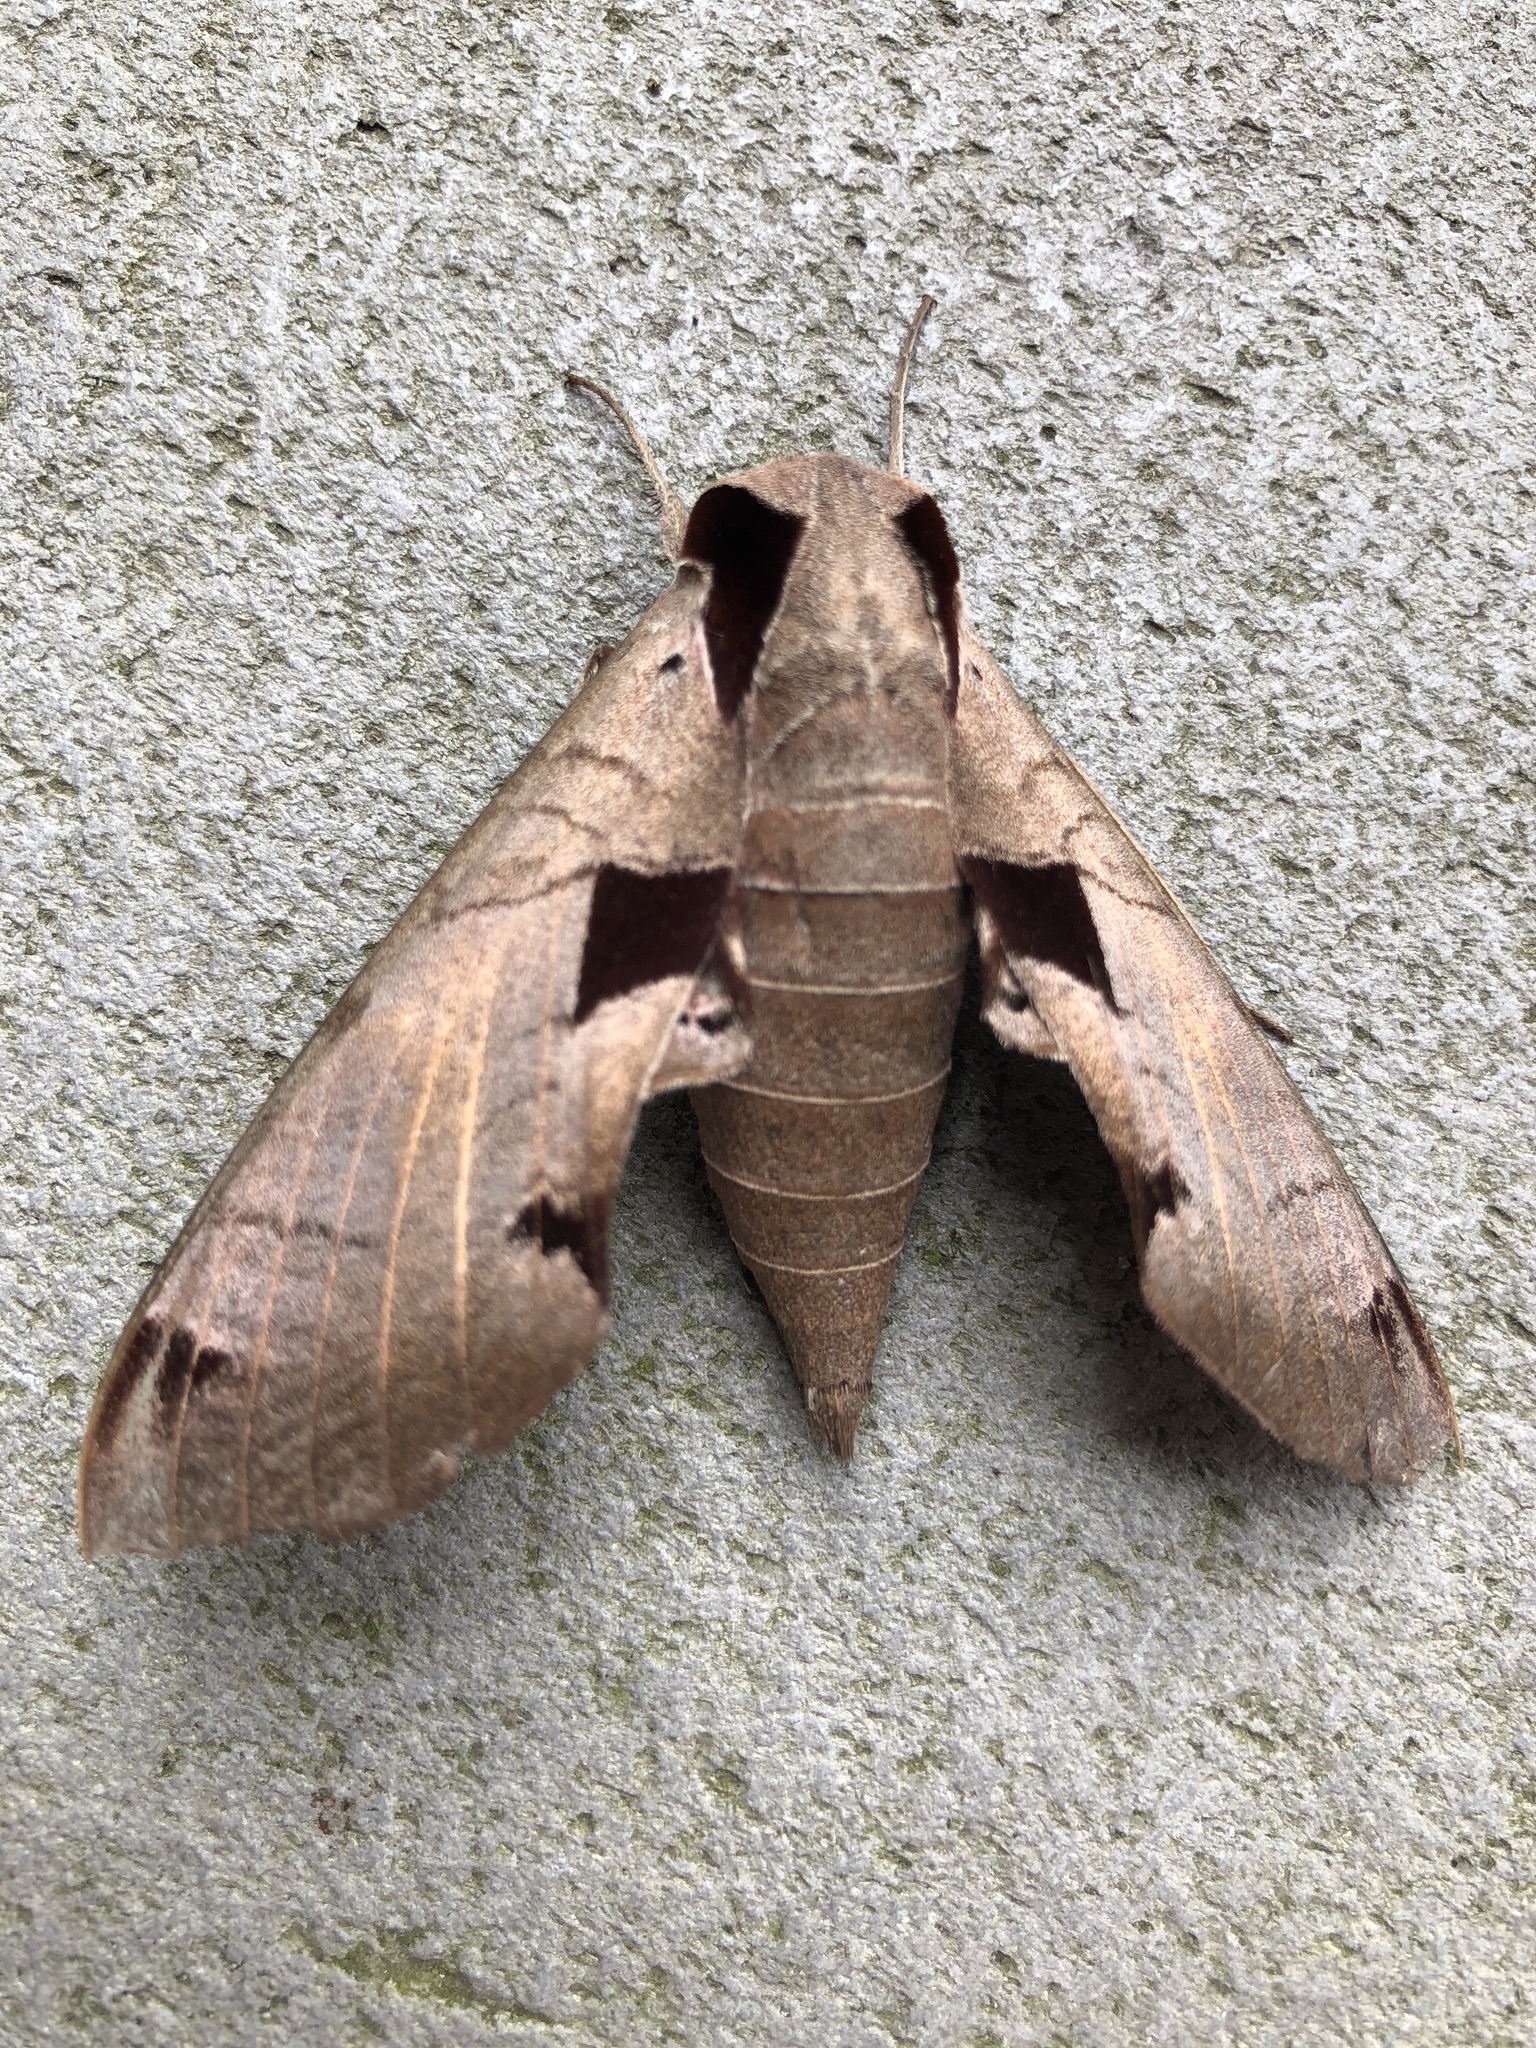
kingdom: Animalia
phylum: Arthropoda
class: Insecta
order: Lepidoptera
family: Sphingidae
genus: Eumorpha
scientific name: Eumorpha achemon
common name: Achemon sphinx
